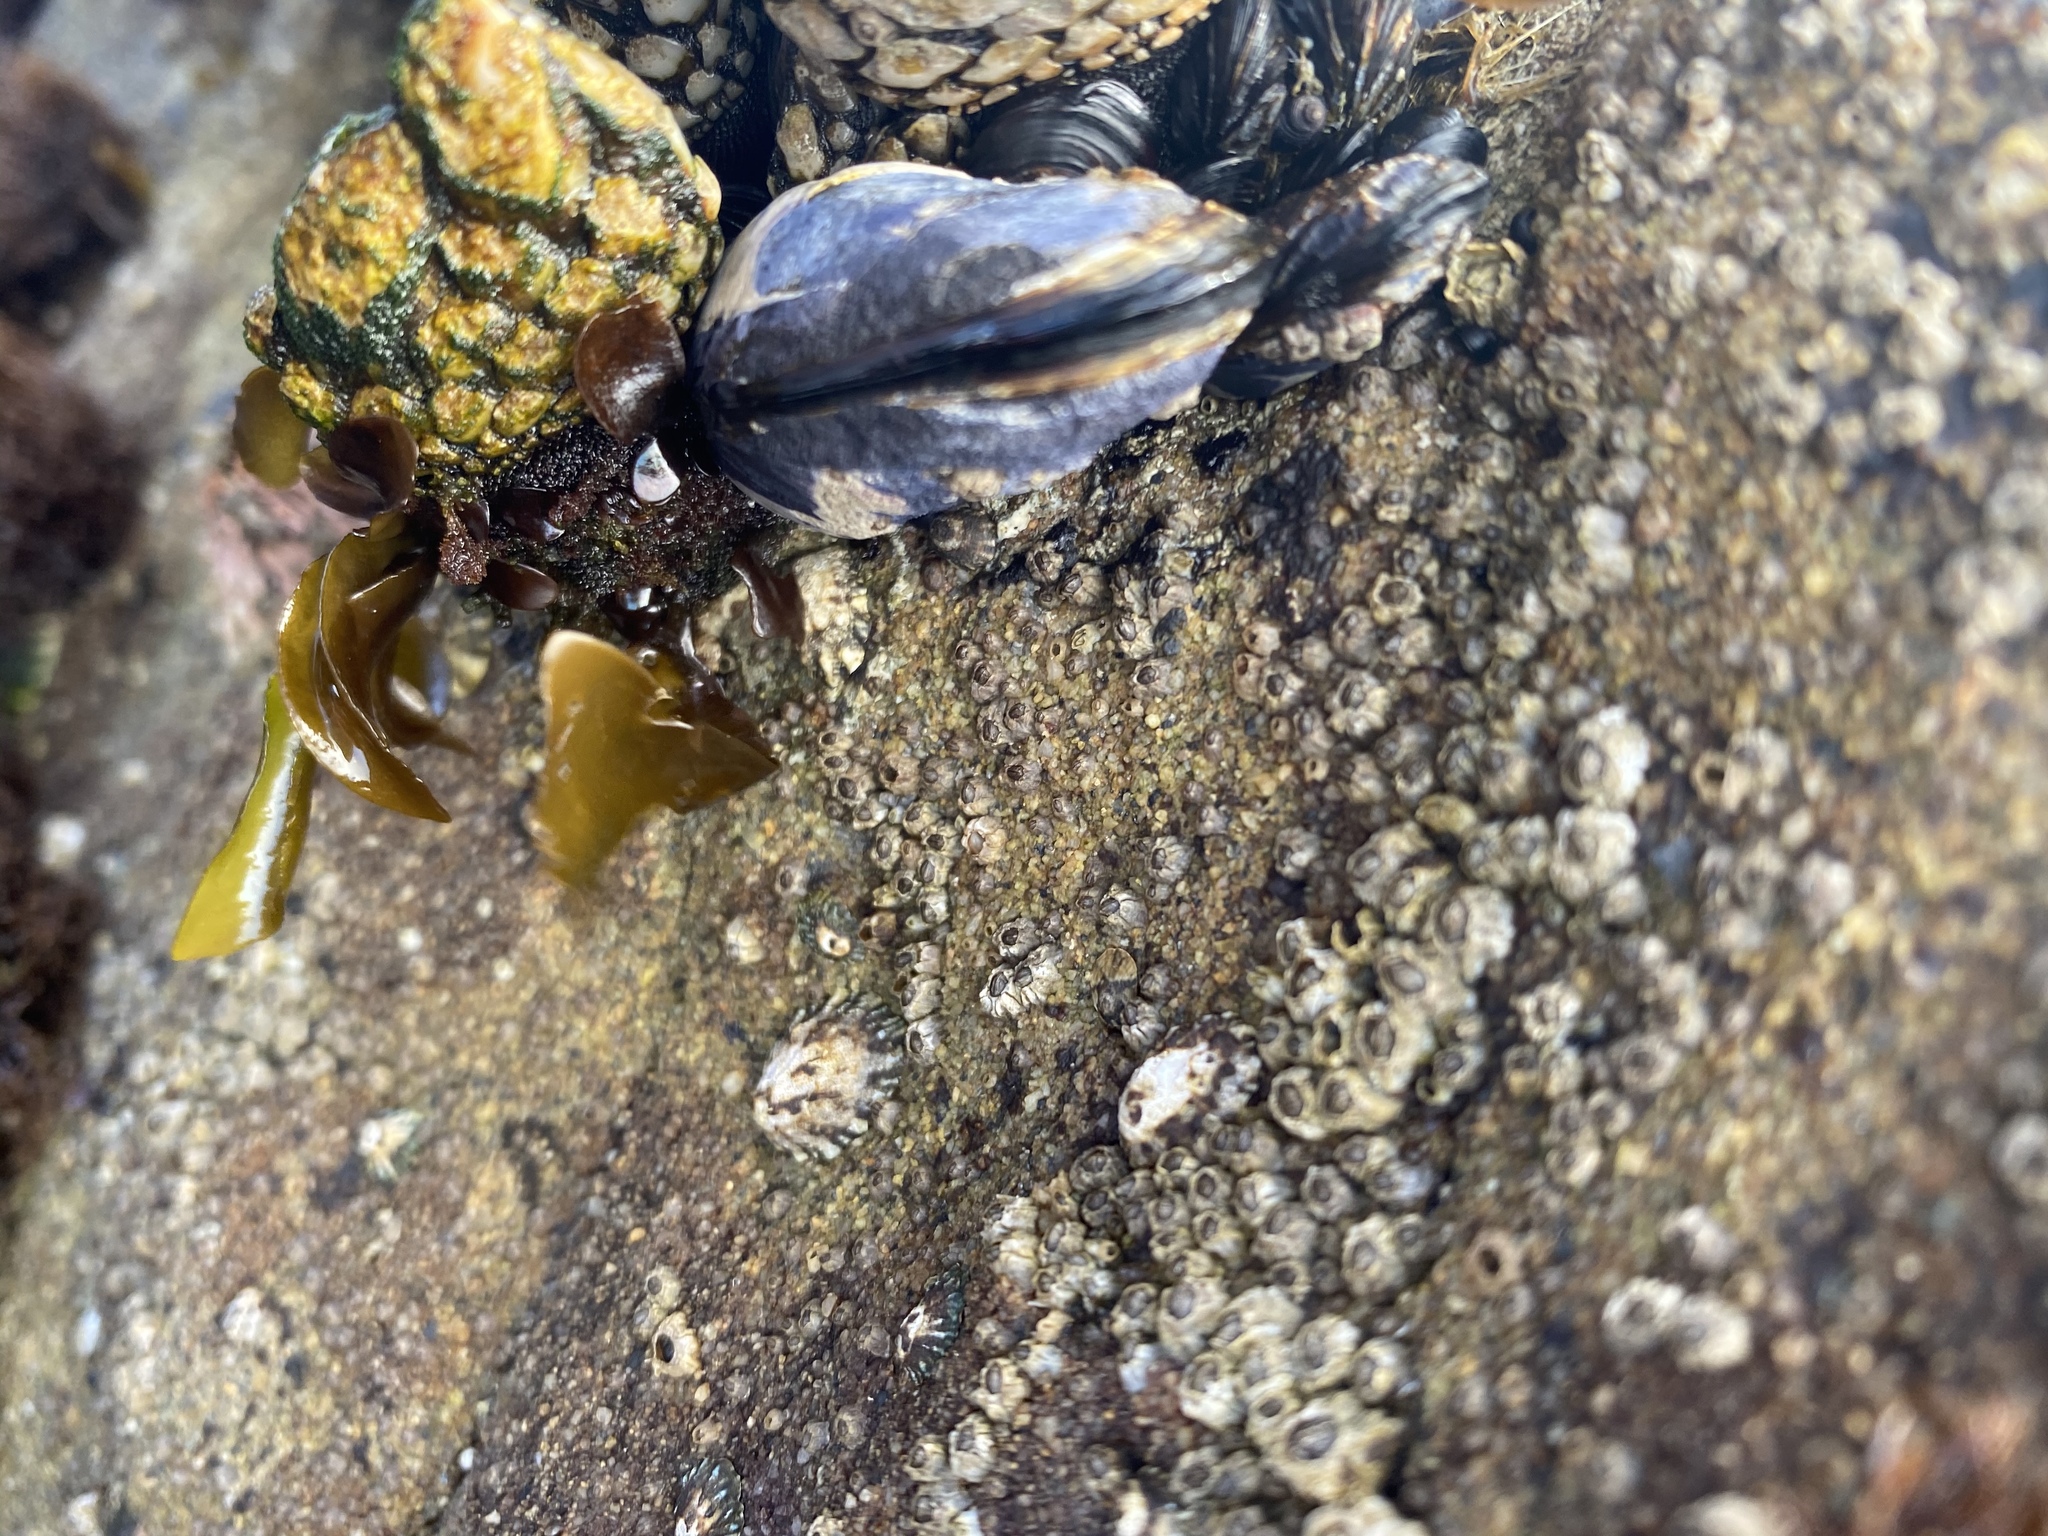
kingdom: Animalia
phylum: Mollusca
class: Bivalvia
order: Mytilida
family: Mytilidae
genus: Mytilus
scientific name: Mytilus californianus
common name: California mussel
